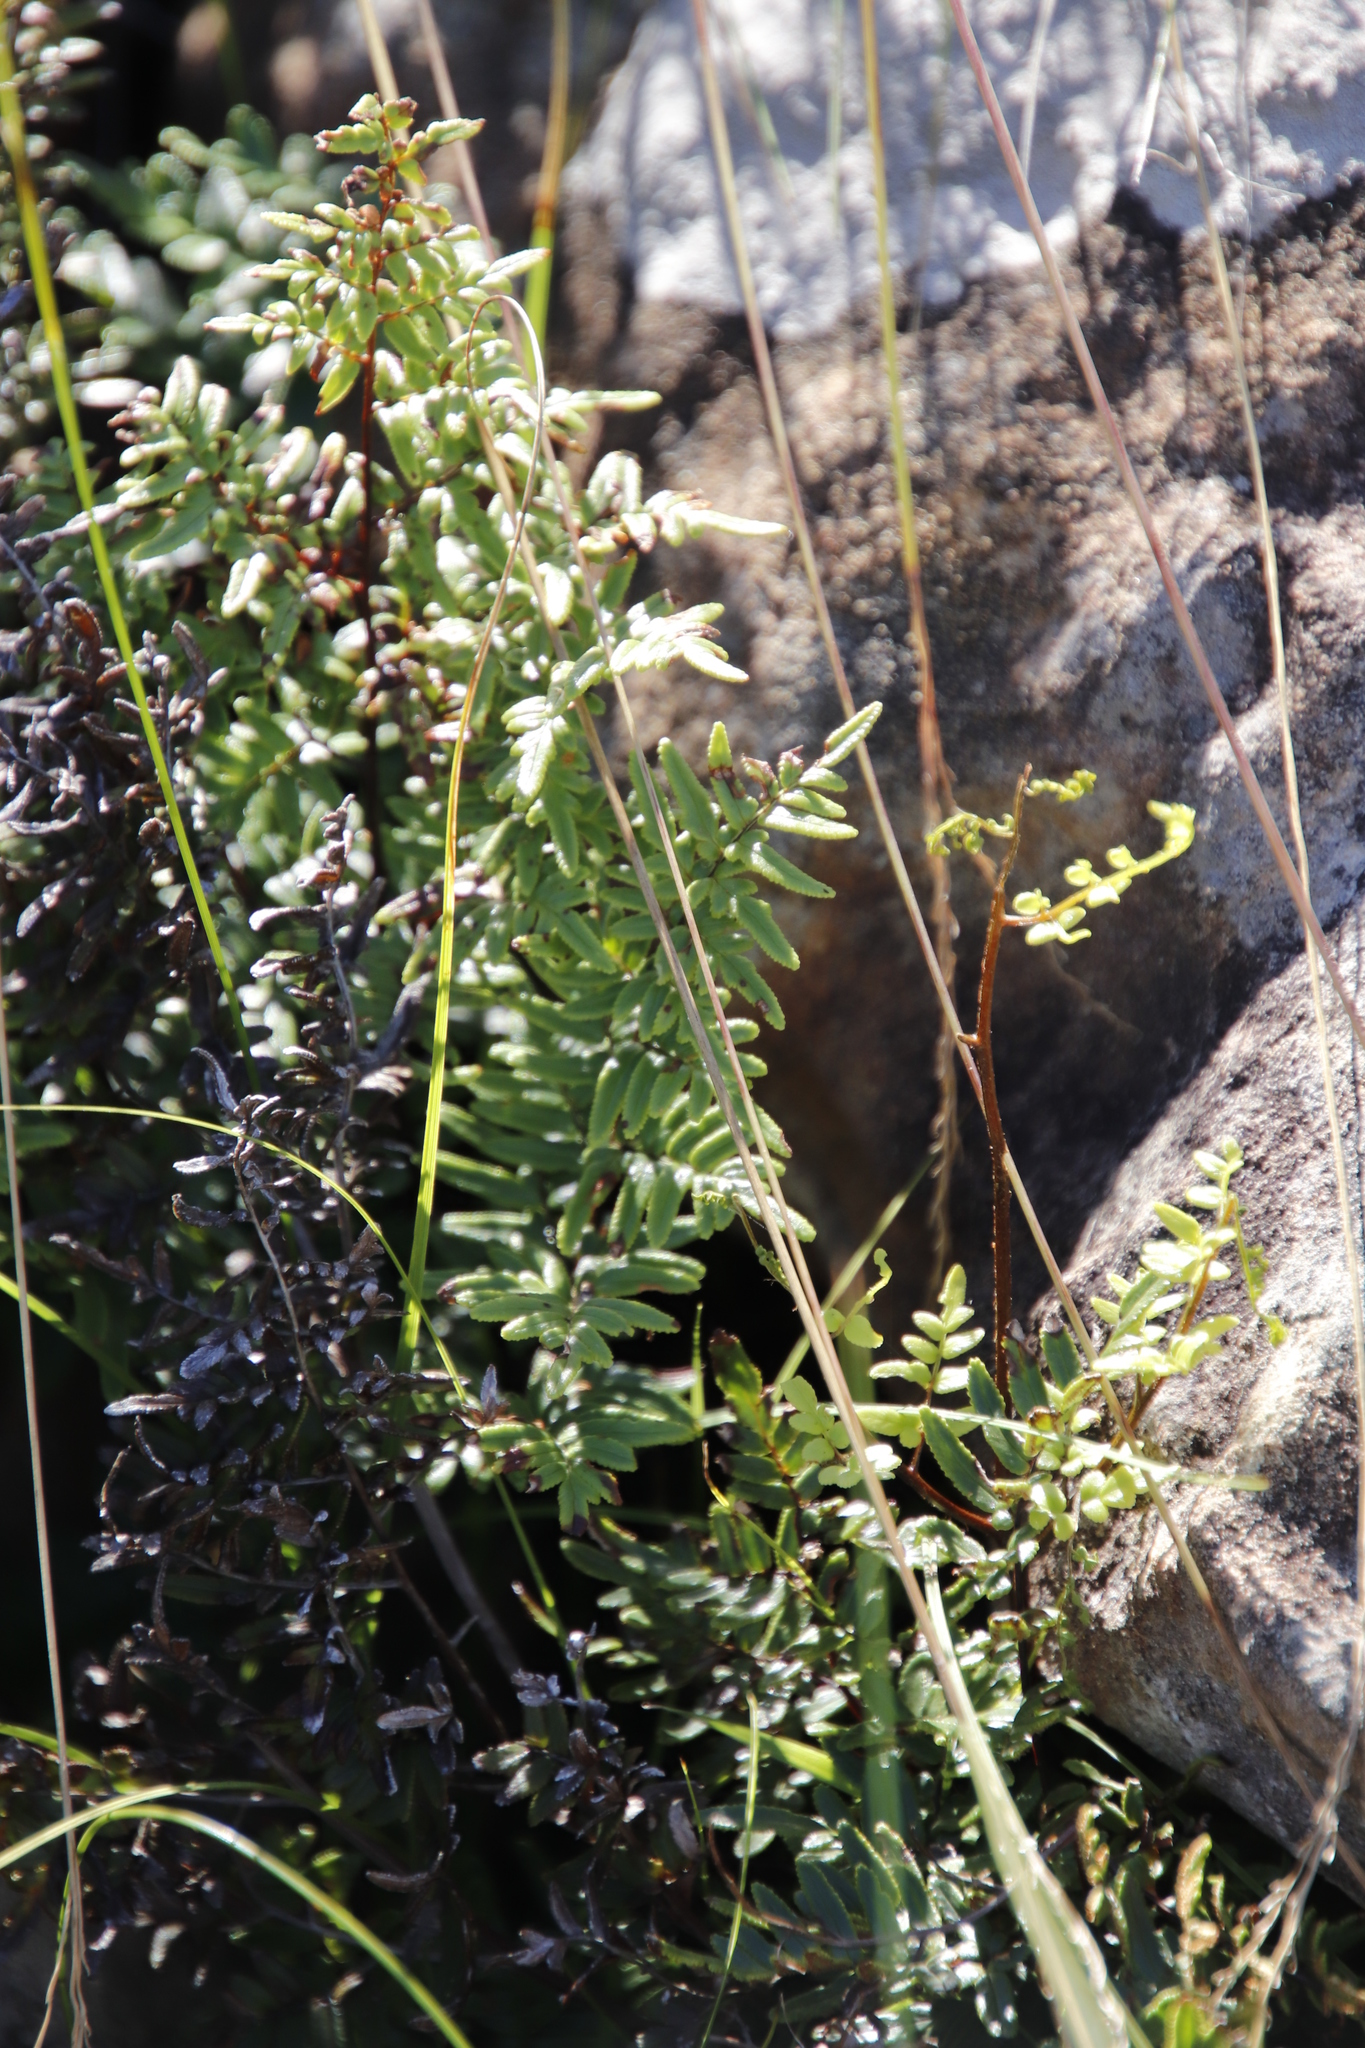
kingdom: Plantae
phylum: Tracheophyta
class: Polypodiopsida
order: Polypodiales
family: Pteridaceae
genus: Cheilanthes
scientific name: Cheilanthes quadripinnata
